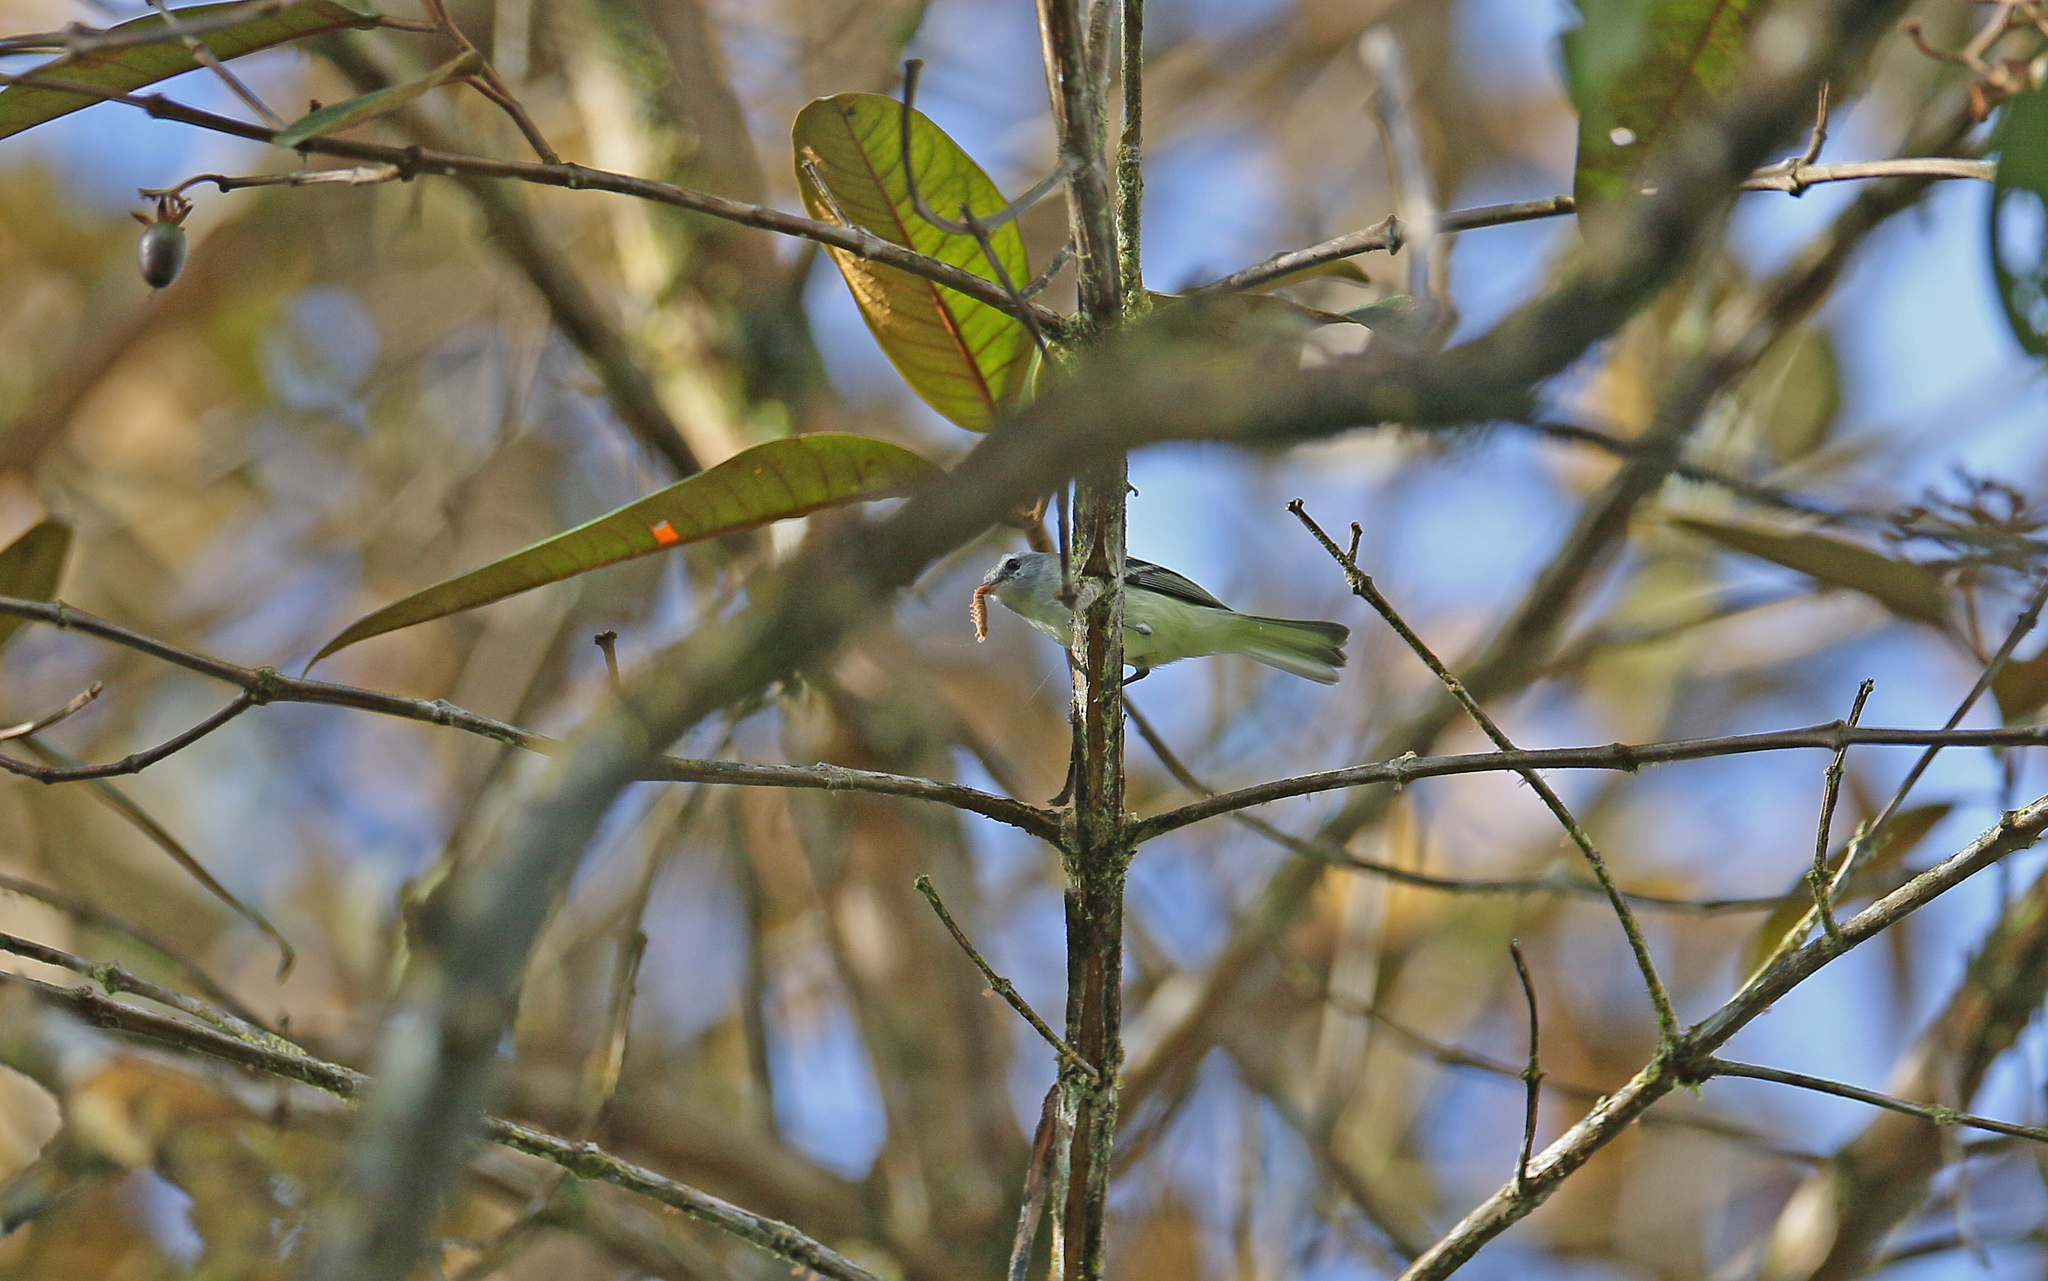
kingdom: Animalia
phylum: Chordata
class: Aves
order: Passeriformes
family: Tyrannidae
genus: Mecocerculus
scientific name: Mecocerculus poecilocercus
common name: White-tailed tyrannulet
